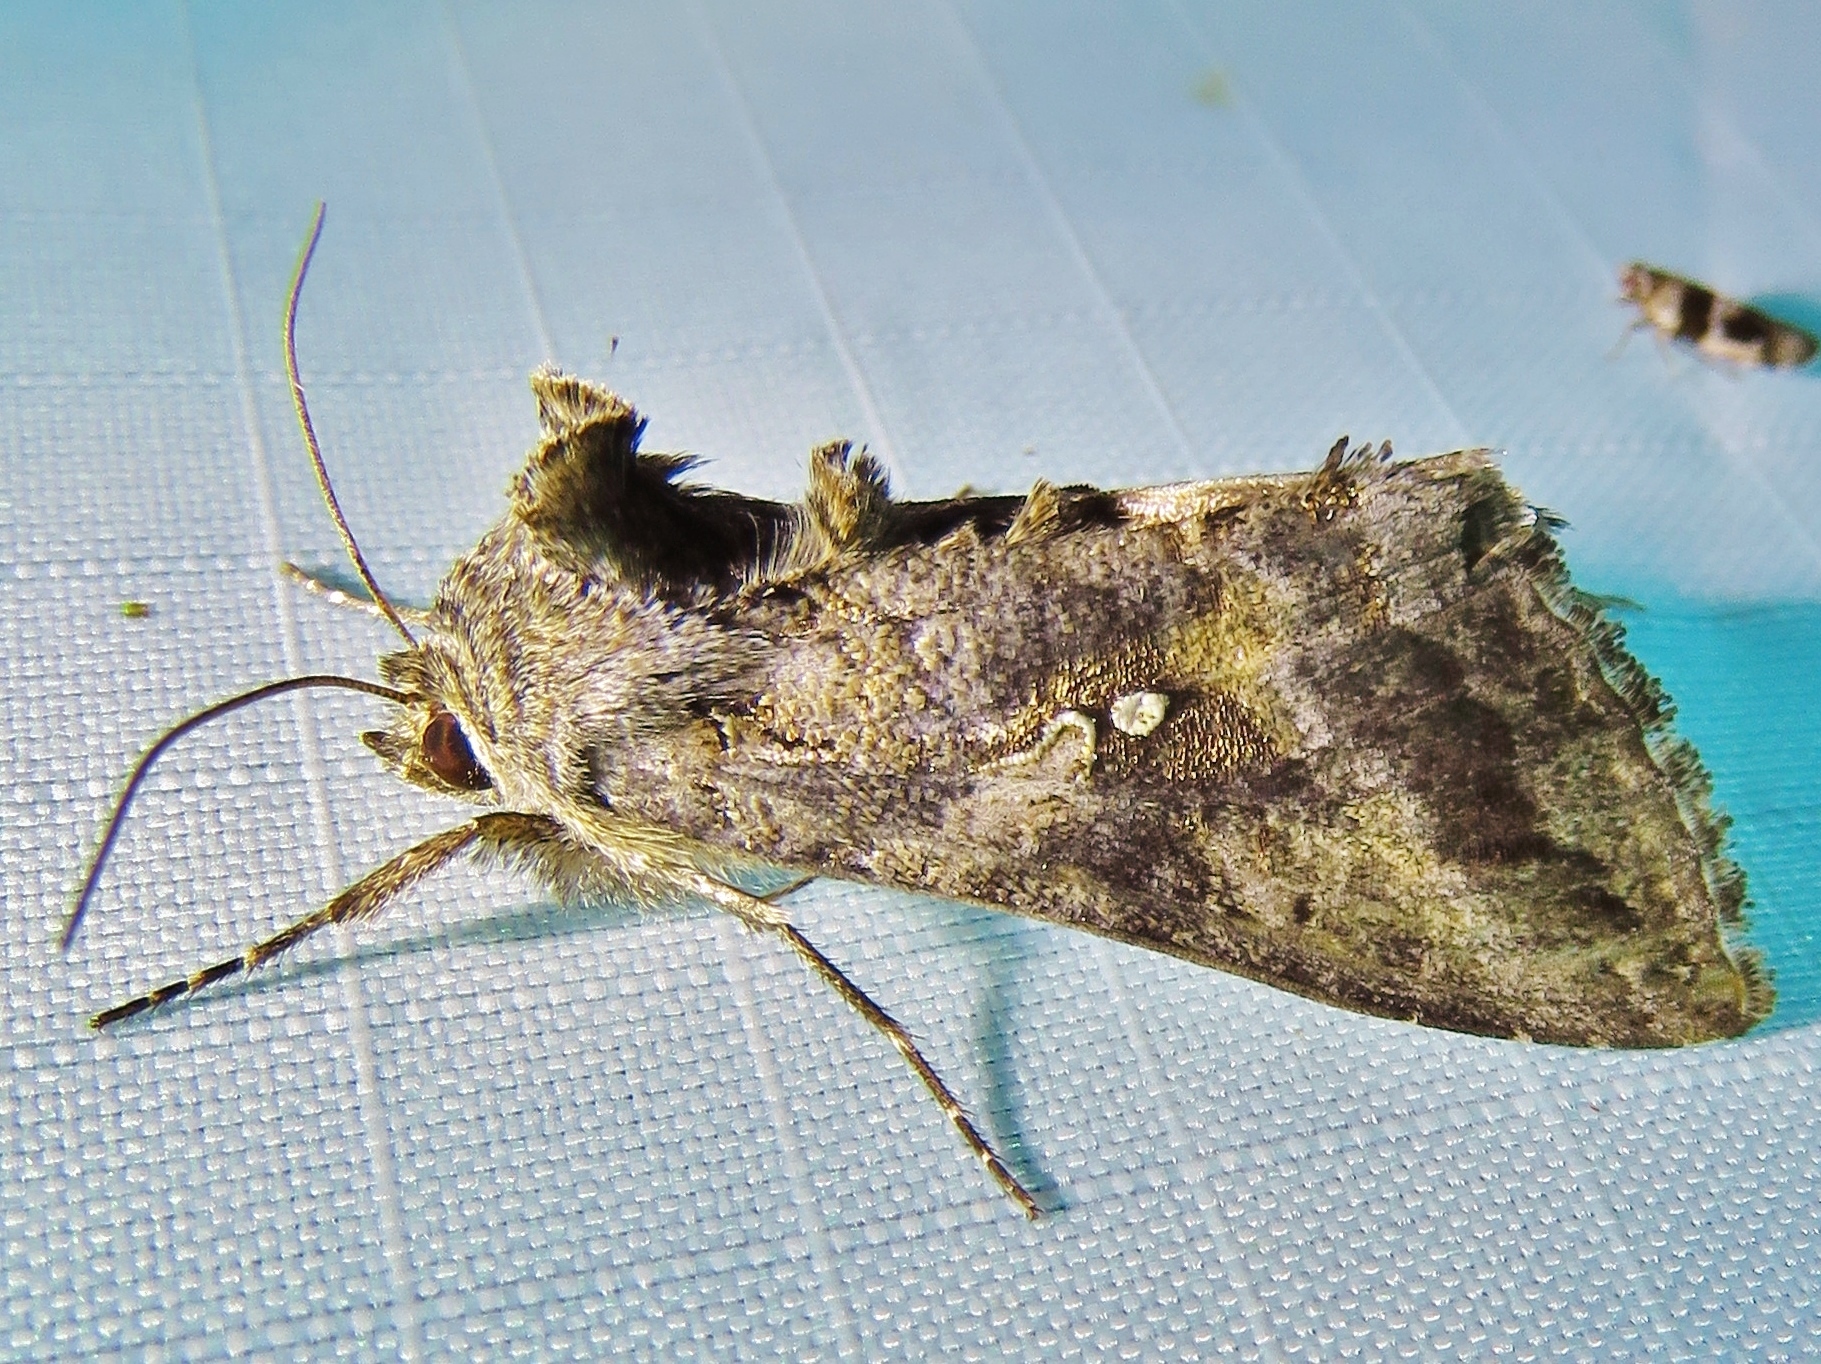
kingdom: Animalia
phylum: Arthropoda
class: Insecta
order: Lepidoptera
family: Noctuidae
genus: Rachiplusia
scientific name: Rachiplusia ou
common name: Gray looper moth
